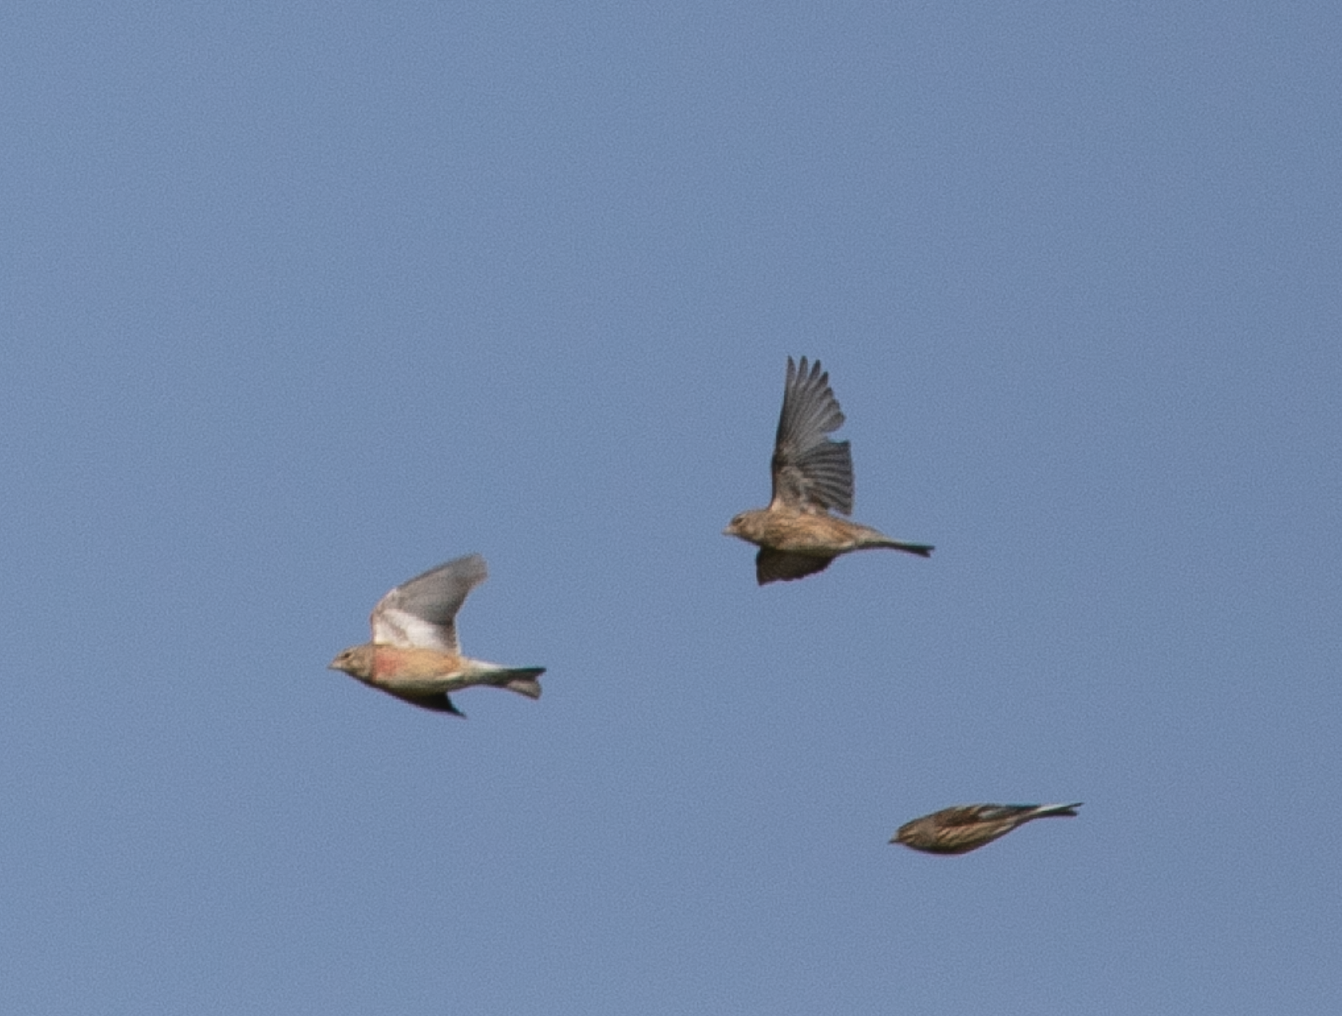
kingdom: Animalia
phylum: Chordata
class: Aves
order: Passeriformes
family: Fringillidae
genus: Linaria
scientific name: Linaria cannabina
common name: Common linnet
